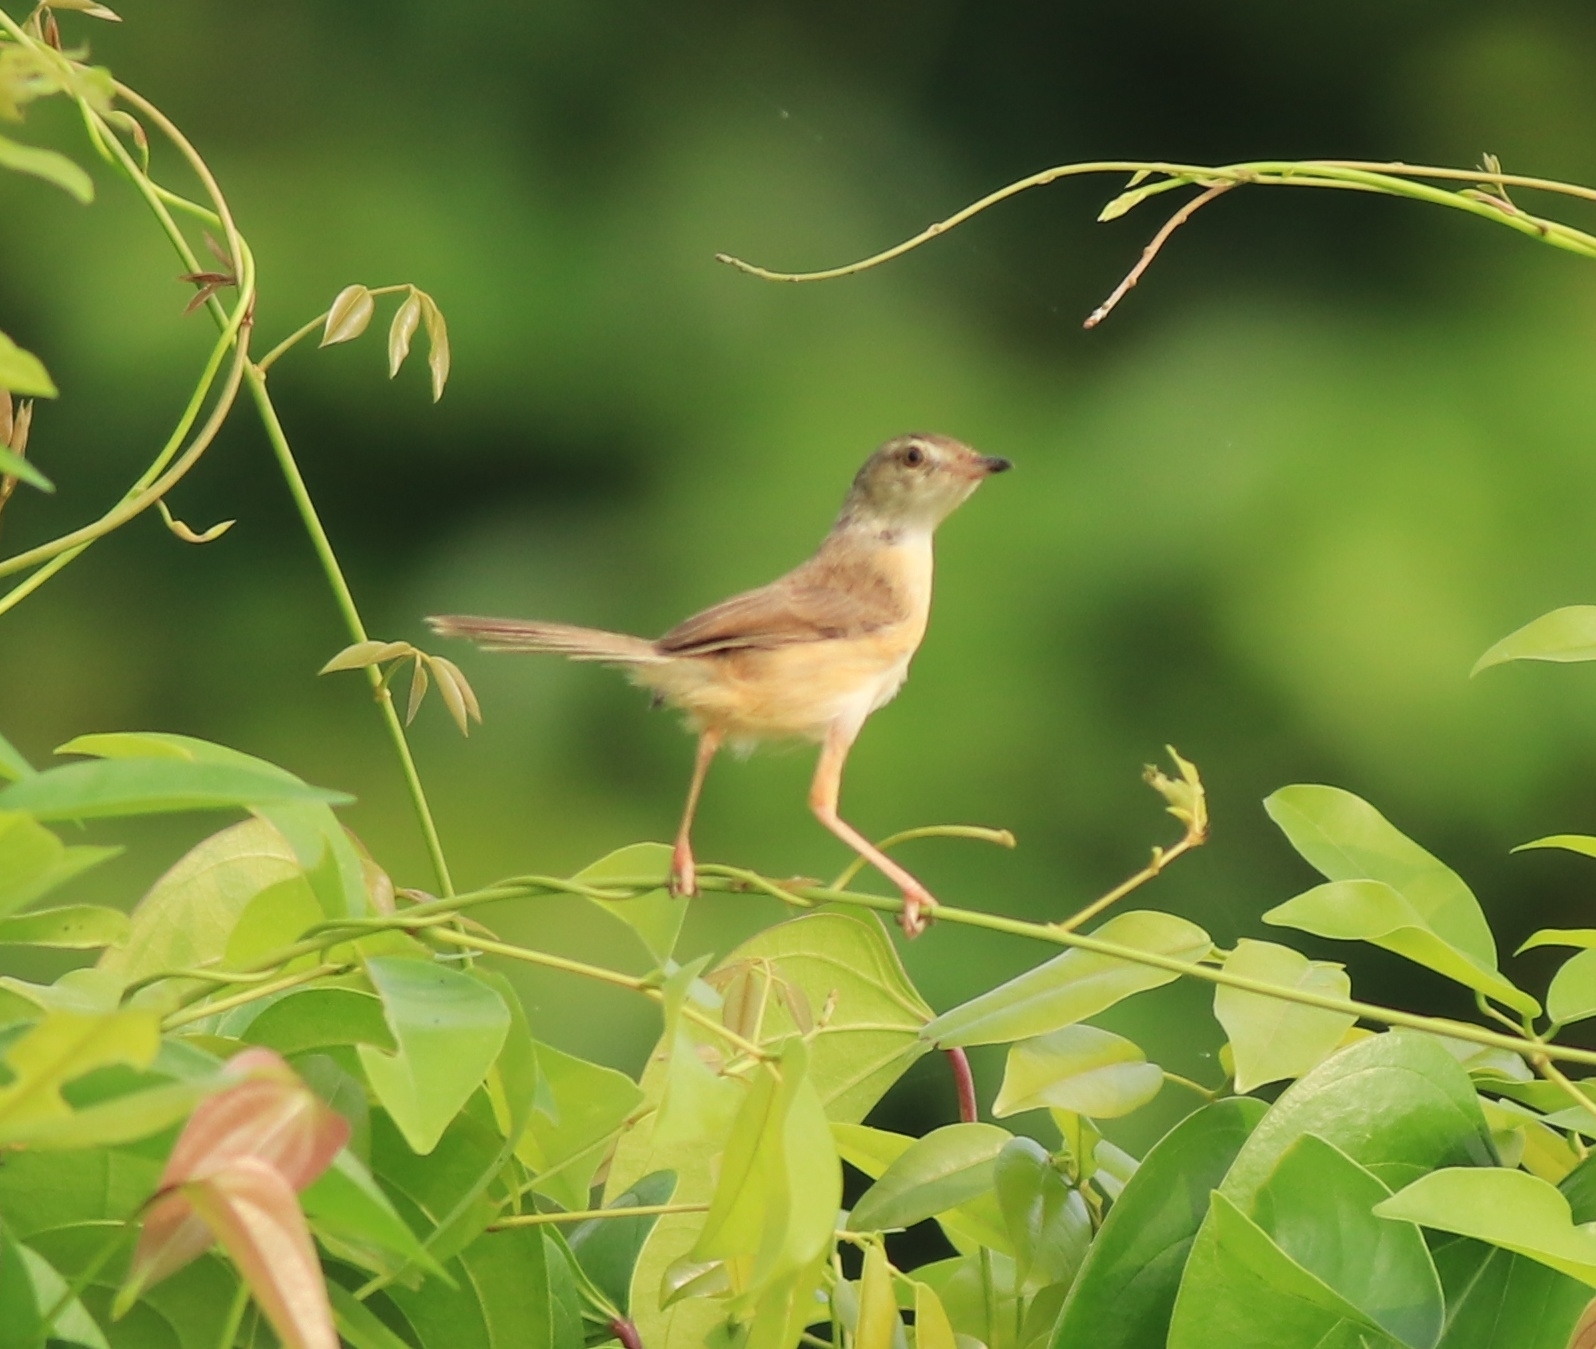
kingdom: Animalia
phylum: Chordata
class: Aves
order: Passeriformes
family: Cisticolidae
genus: Prinia
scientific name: Prinia inornata
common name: Plain prinia
